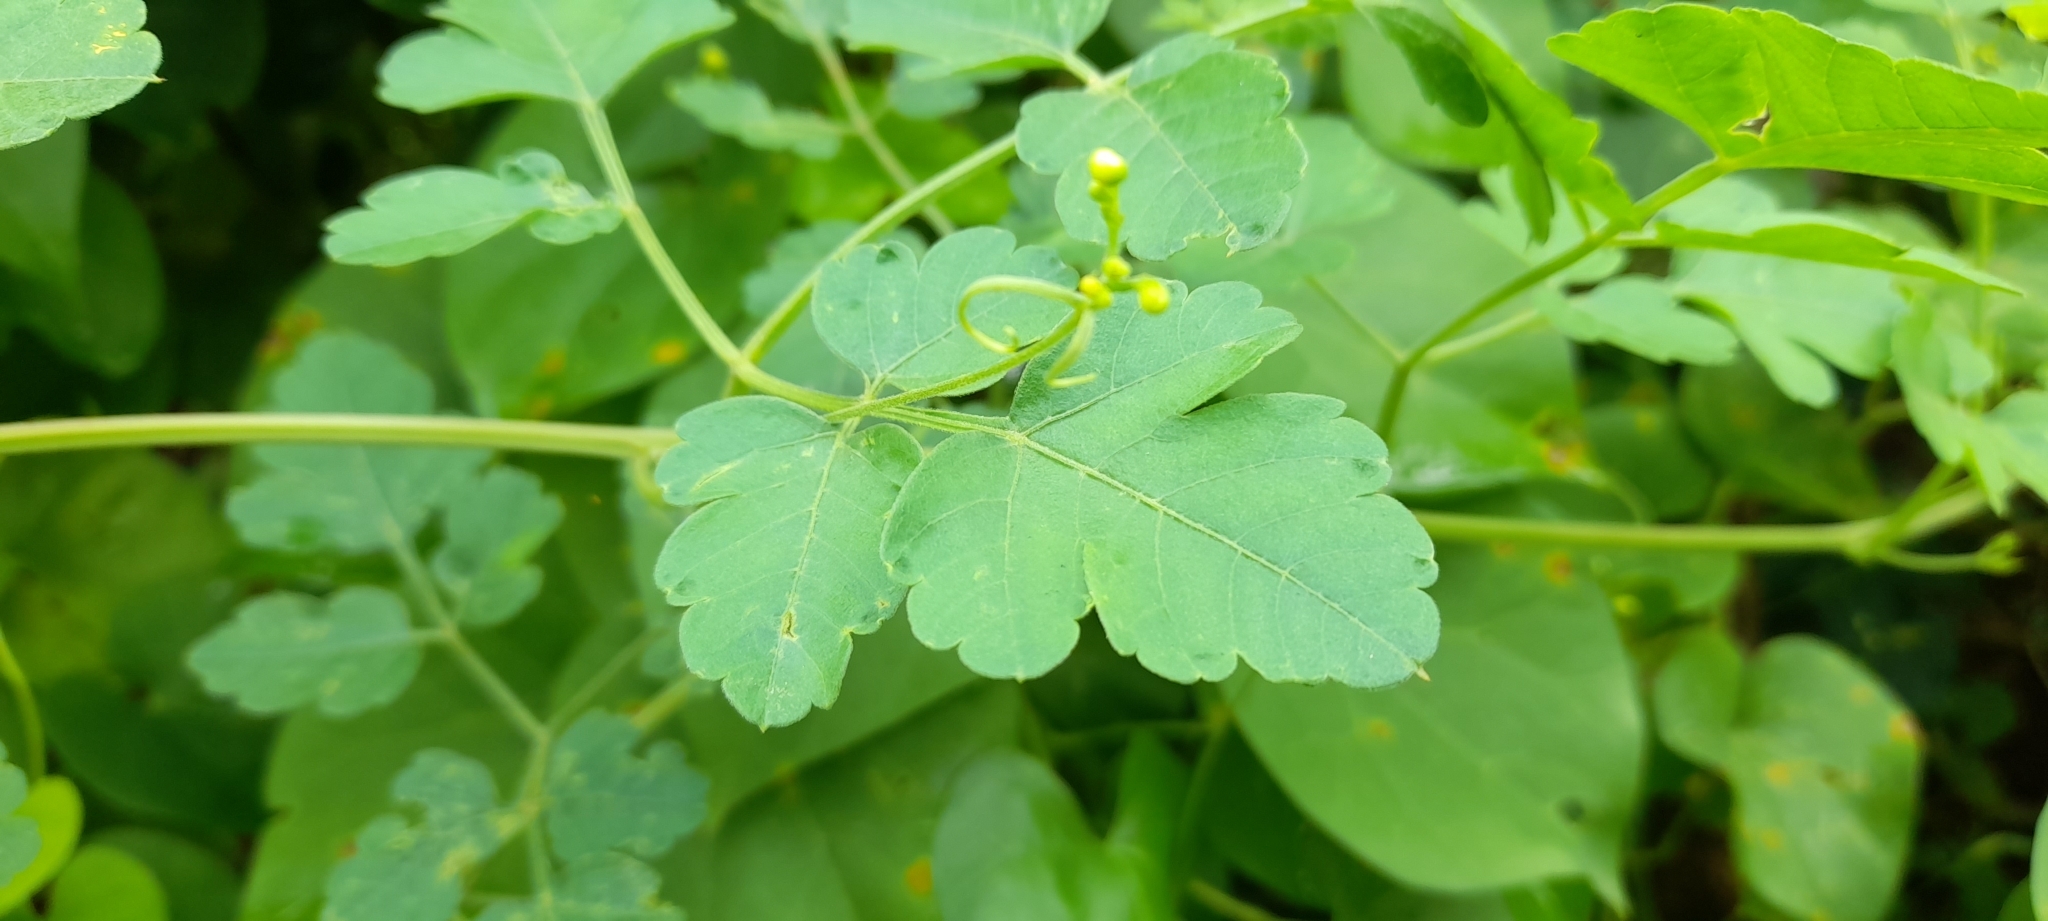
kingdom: Plantae
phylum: Tracheophyta
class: Magnoliopsida
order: Sapindales
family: Sapindaceae
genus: Cardiospermum
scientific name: Cardiospermum halicacabum
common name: Balloon vine
